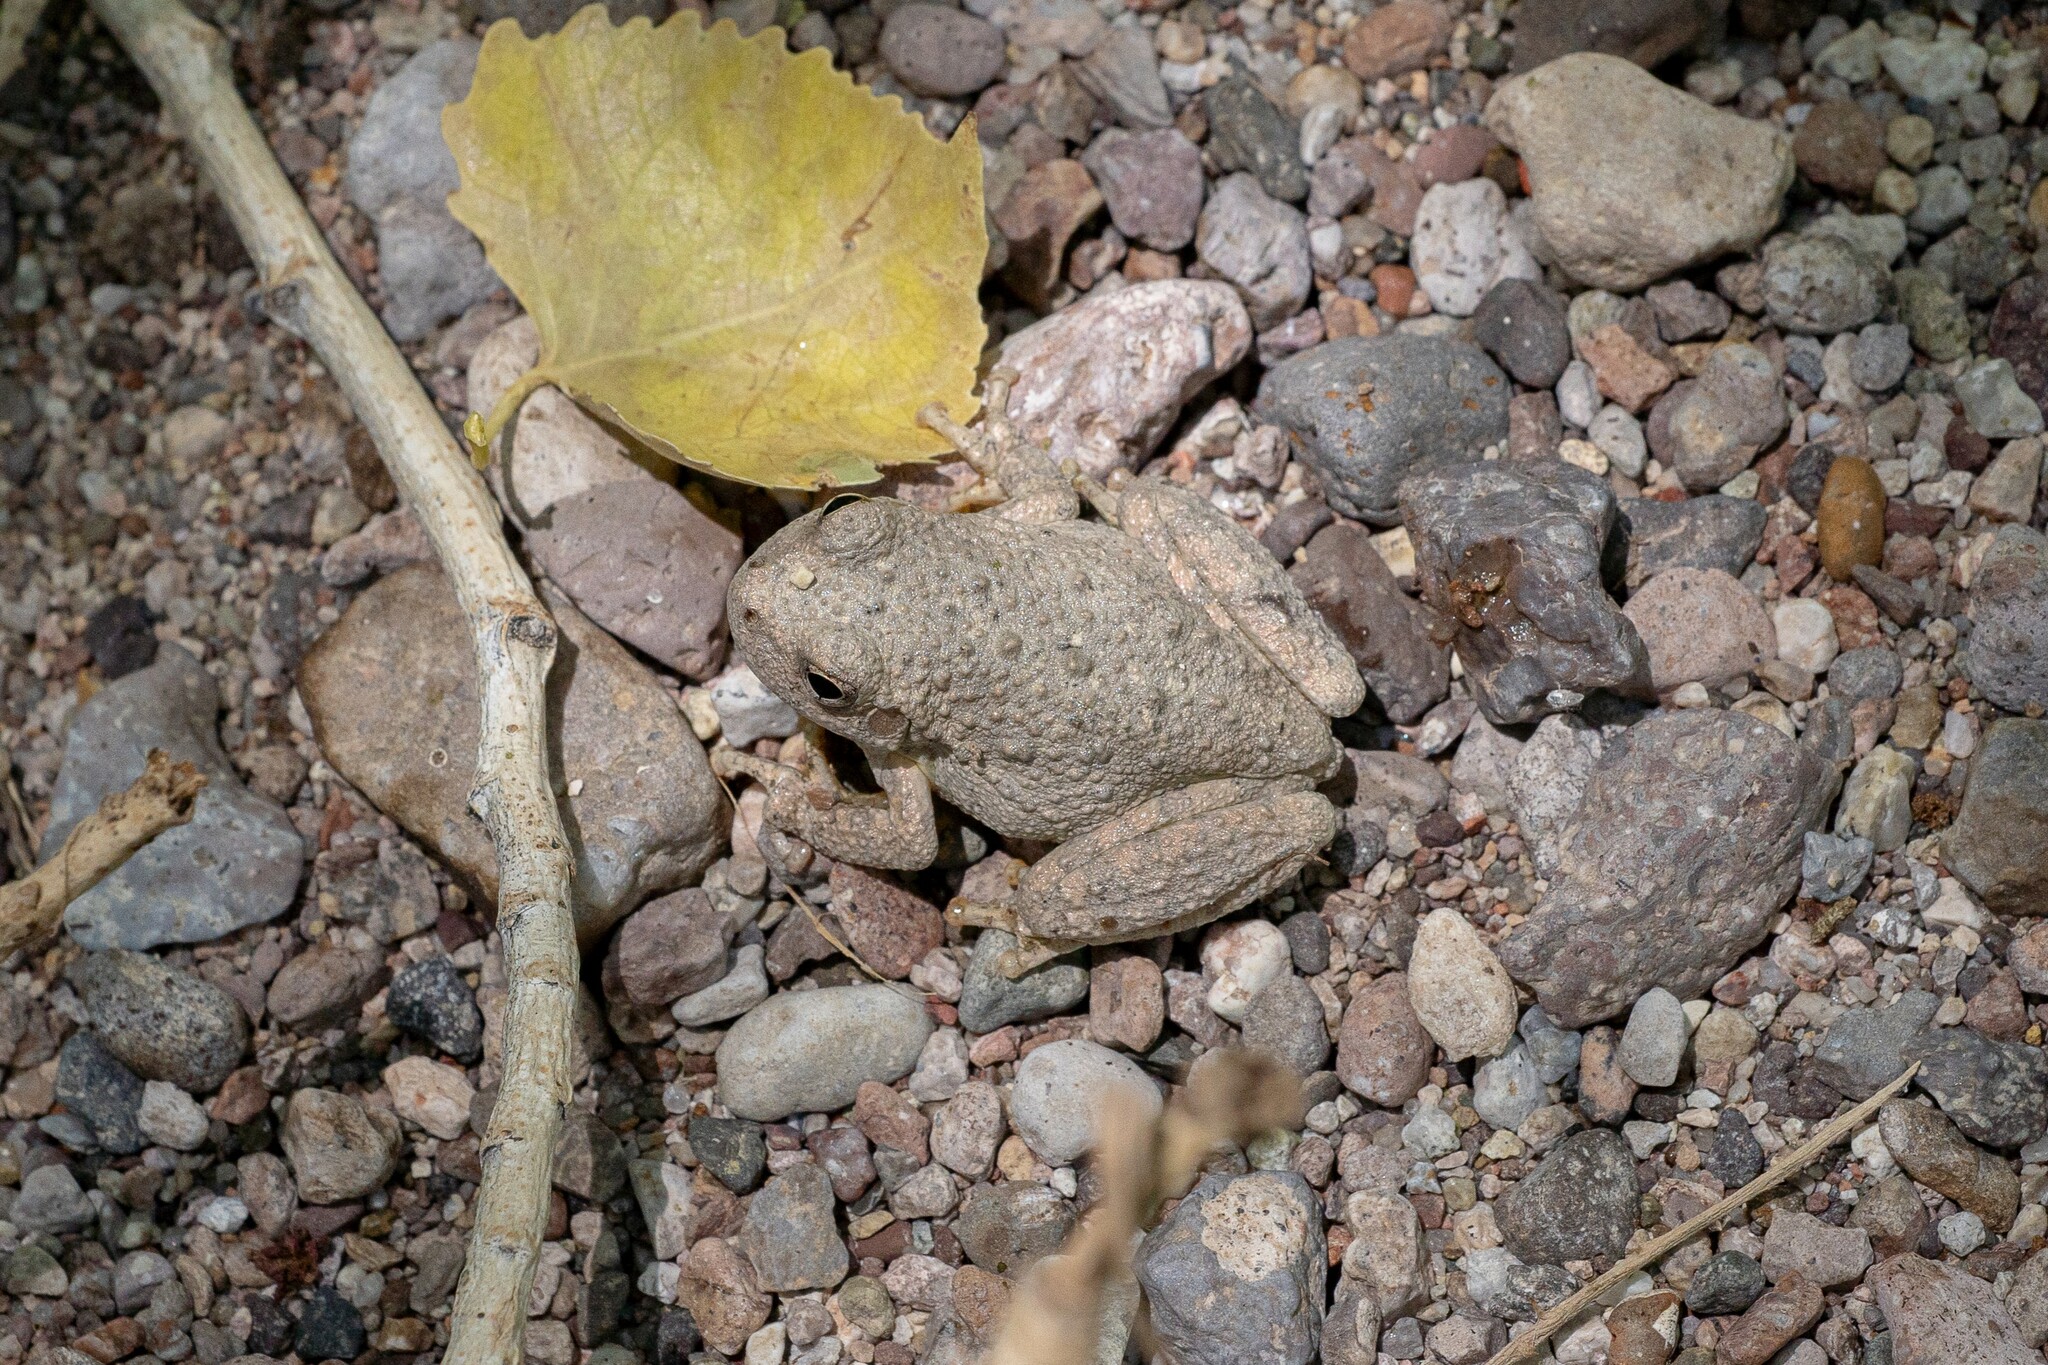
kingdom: Animalia
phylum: Chordata
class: Amphibia
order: Anura
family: Hylidae
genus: Dryophytes
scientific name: Dryophytes arenicolor
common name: Canyon treefrog
